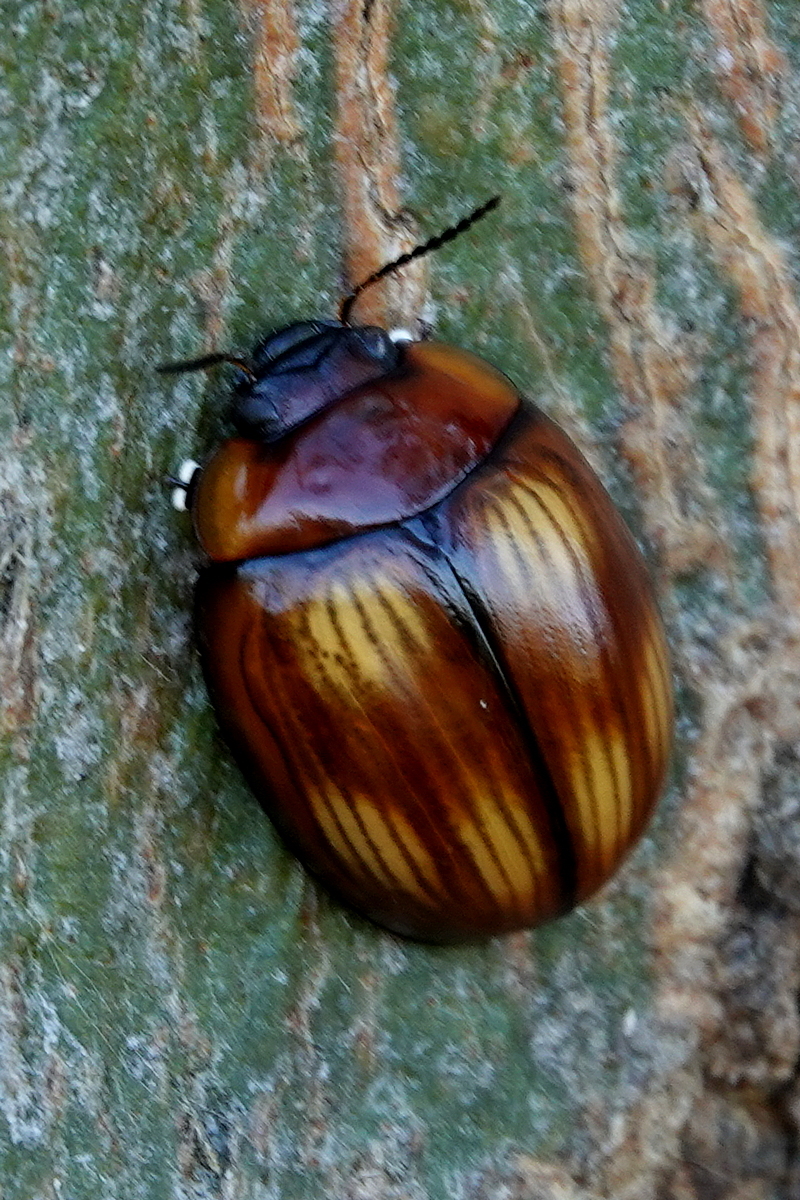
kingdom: Animalia
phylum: Arthropoda
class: Insecta
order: Coleoptera
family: Chrysomelidae
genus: Paropsisterna
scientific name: Paropsisterna
